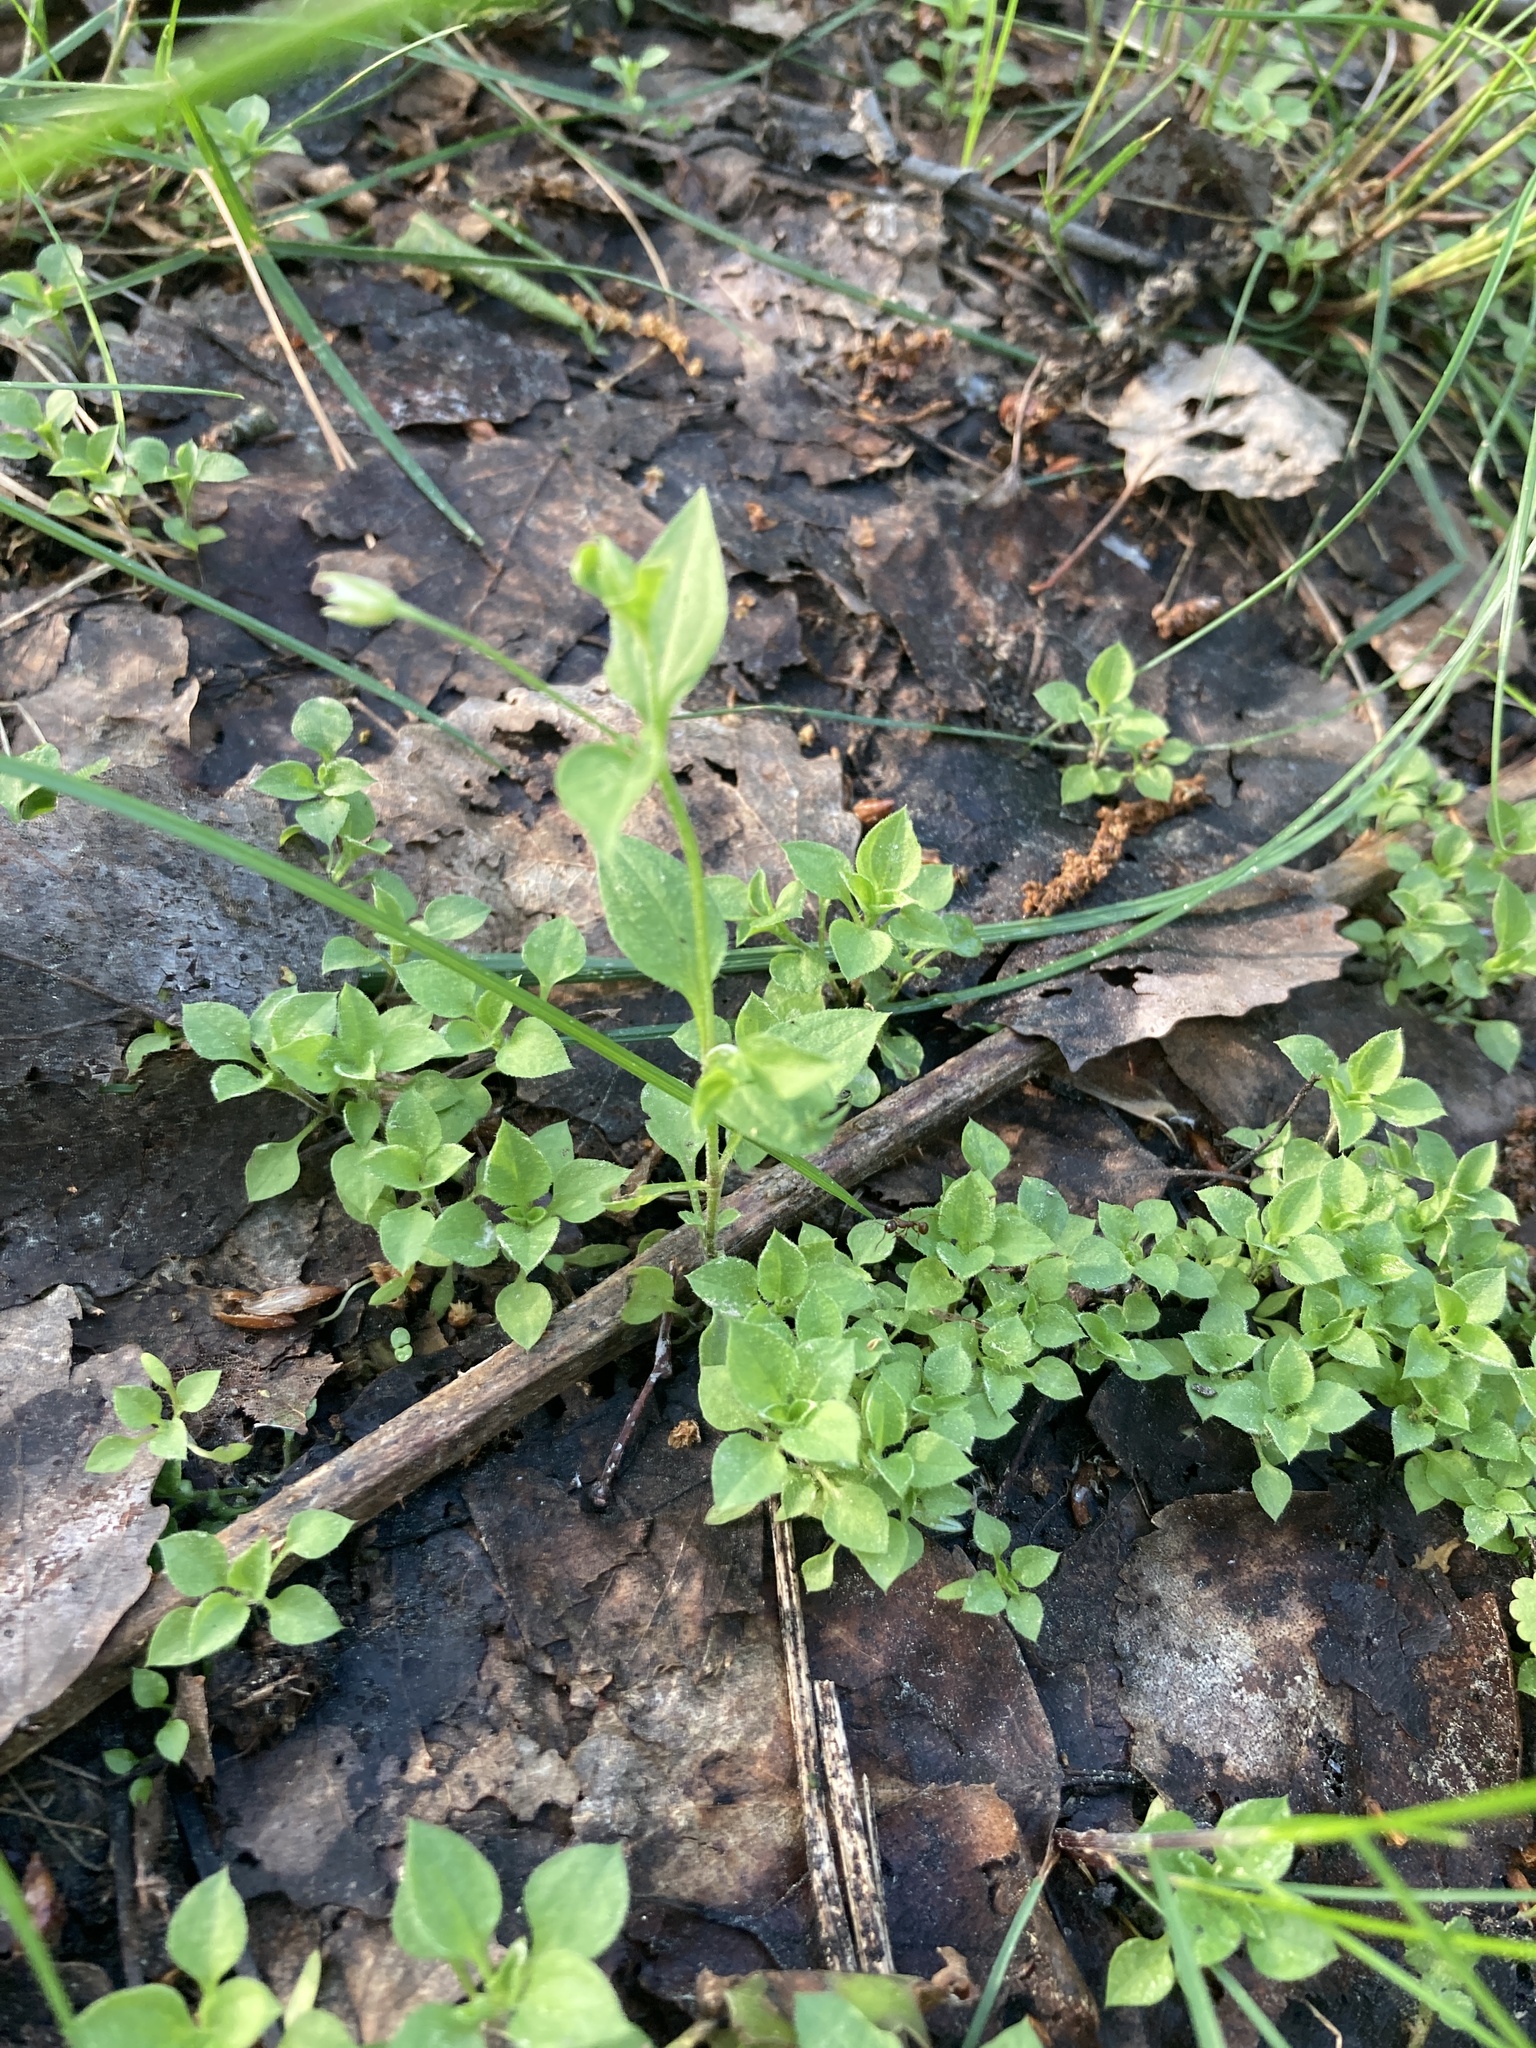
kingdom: Plantae
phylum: Tracheophyta
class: Magnoliopsida
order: Caryophyllales
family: Caryophyllaceae
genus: Moehringia
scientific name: Moehringia trinervia
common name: Three-nerved sandwort
